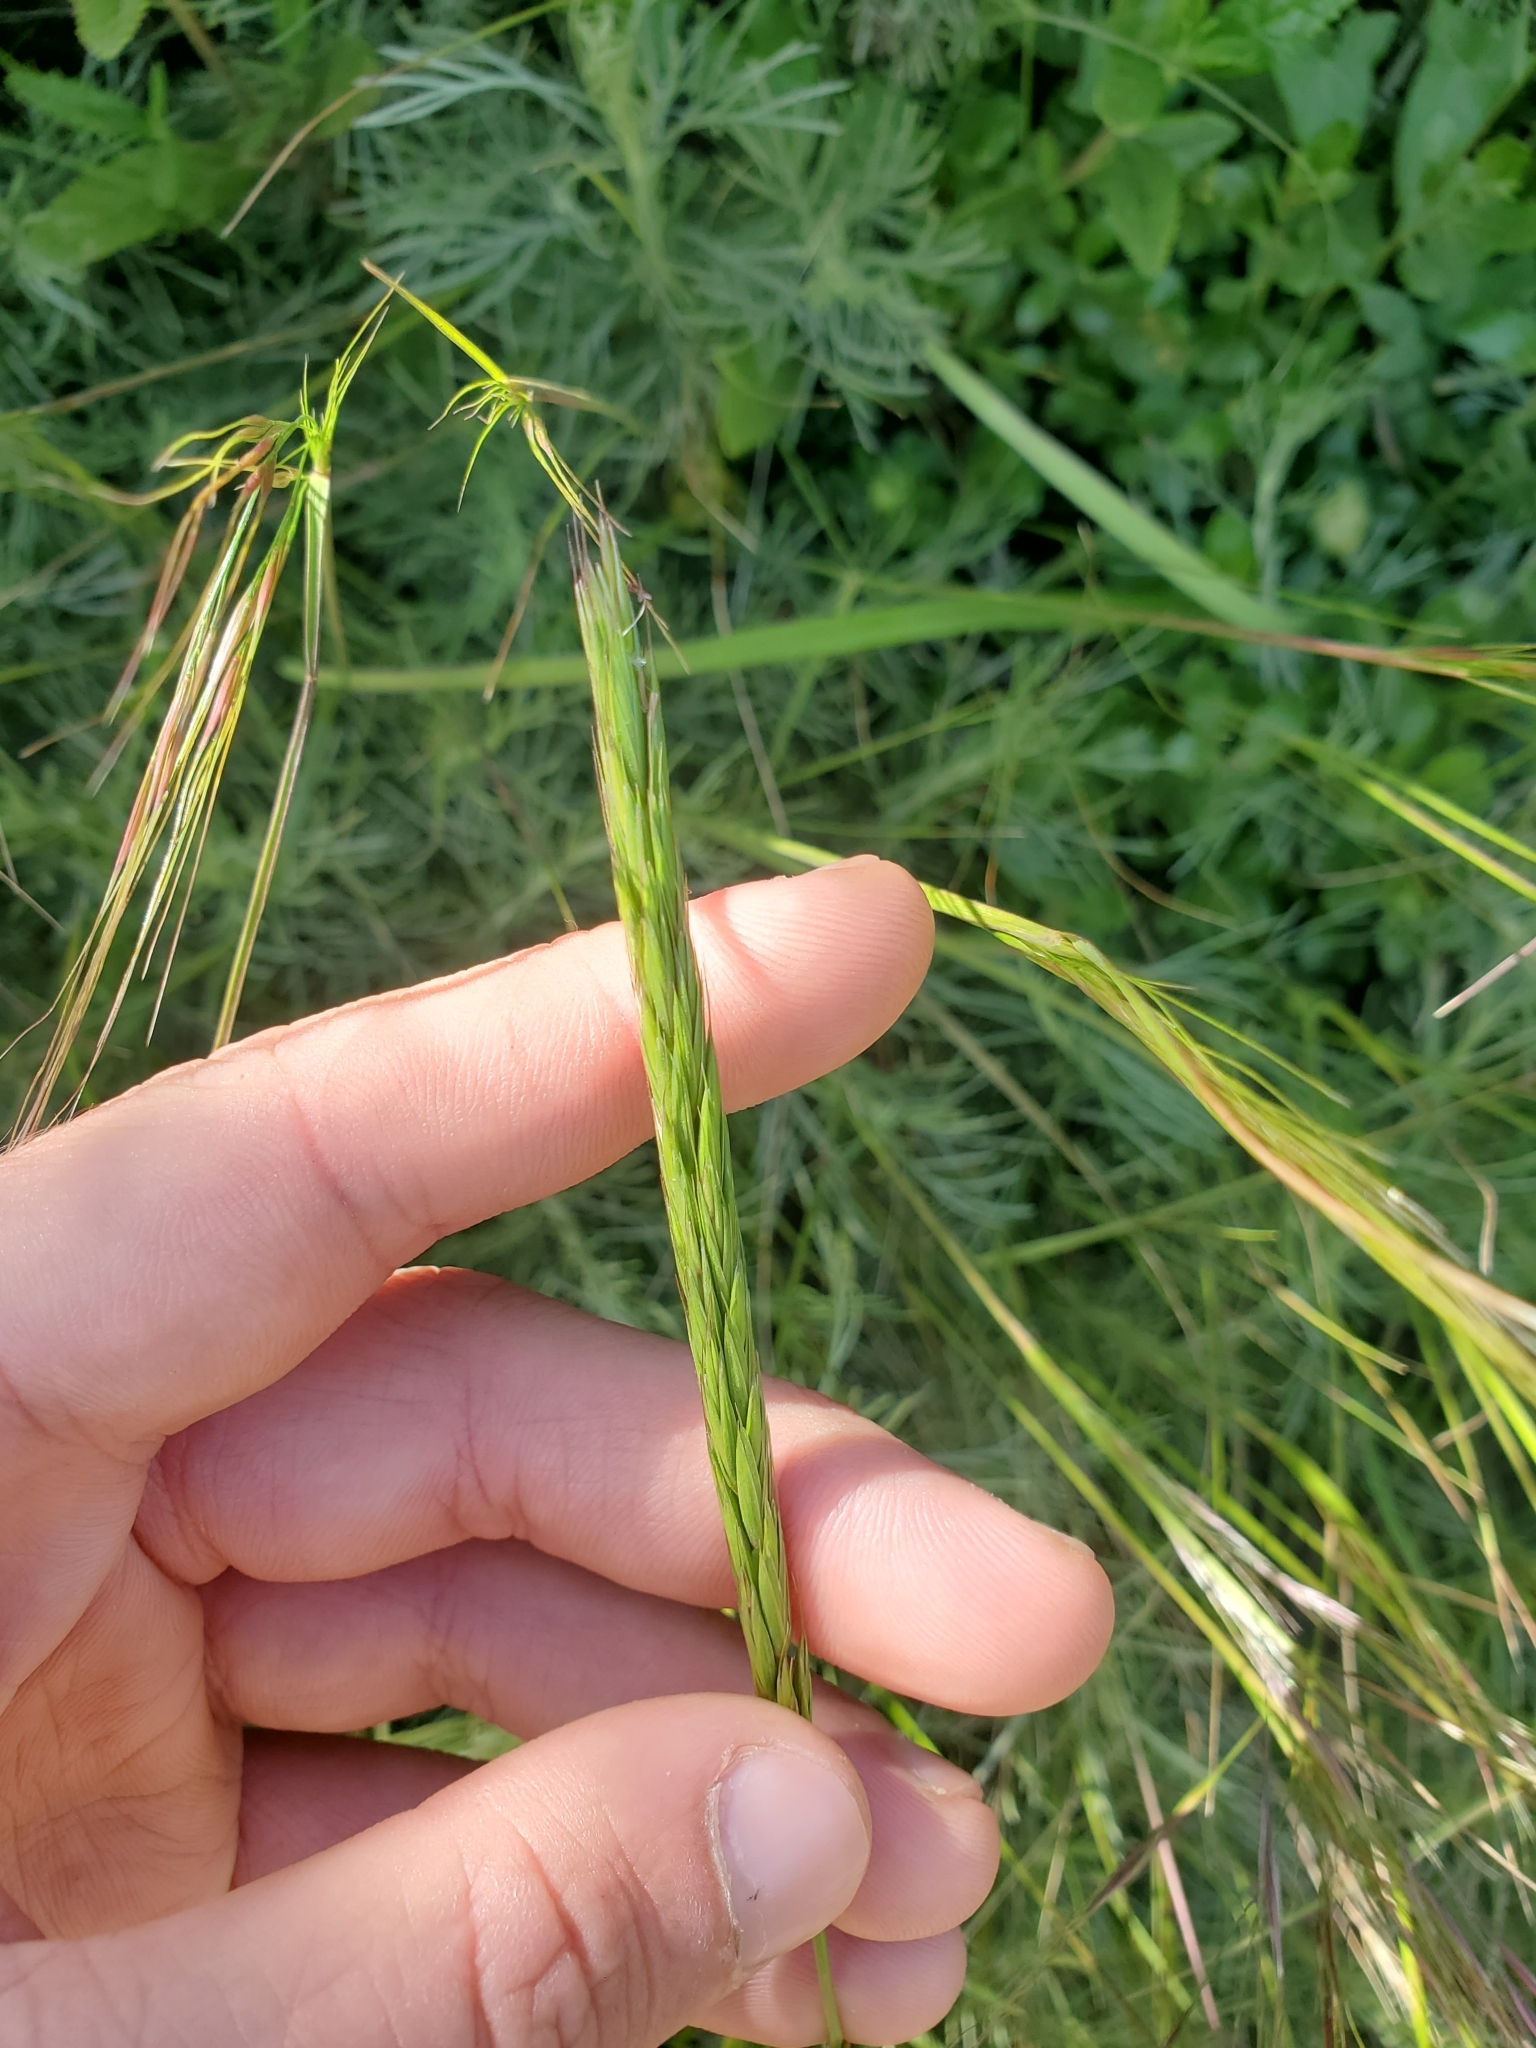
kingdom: Plantae
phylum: Tracheophyta
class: Liliopsida
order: Poales
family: Poaceae
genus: Elymus
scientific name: Elymus glaucus
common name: Blue wild rye
